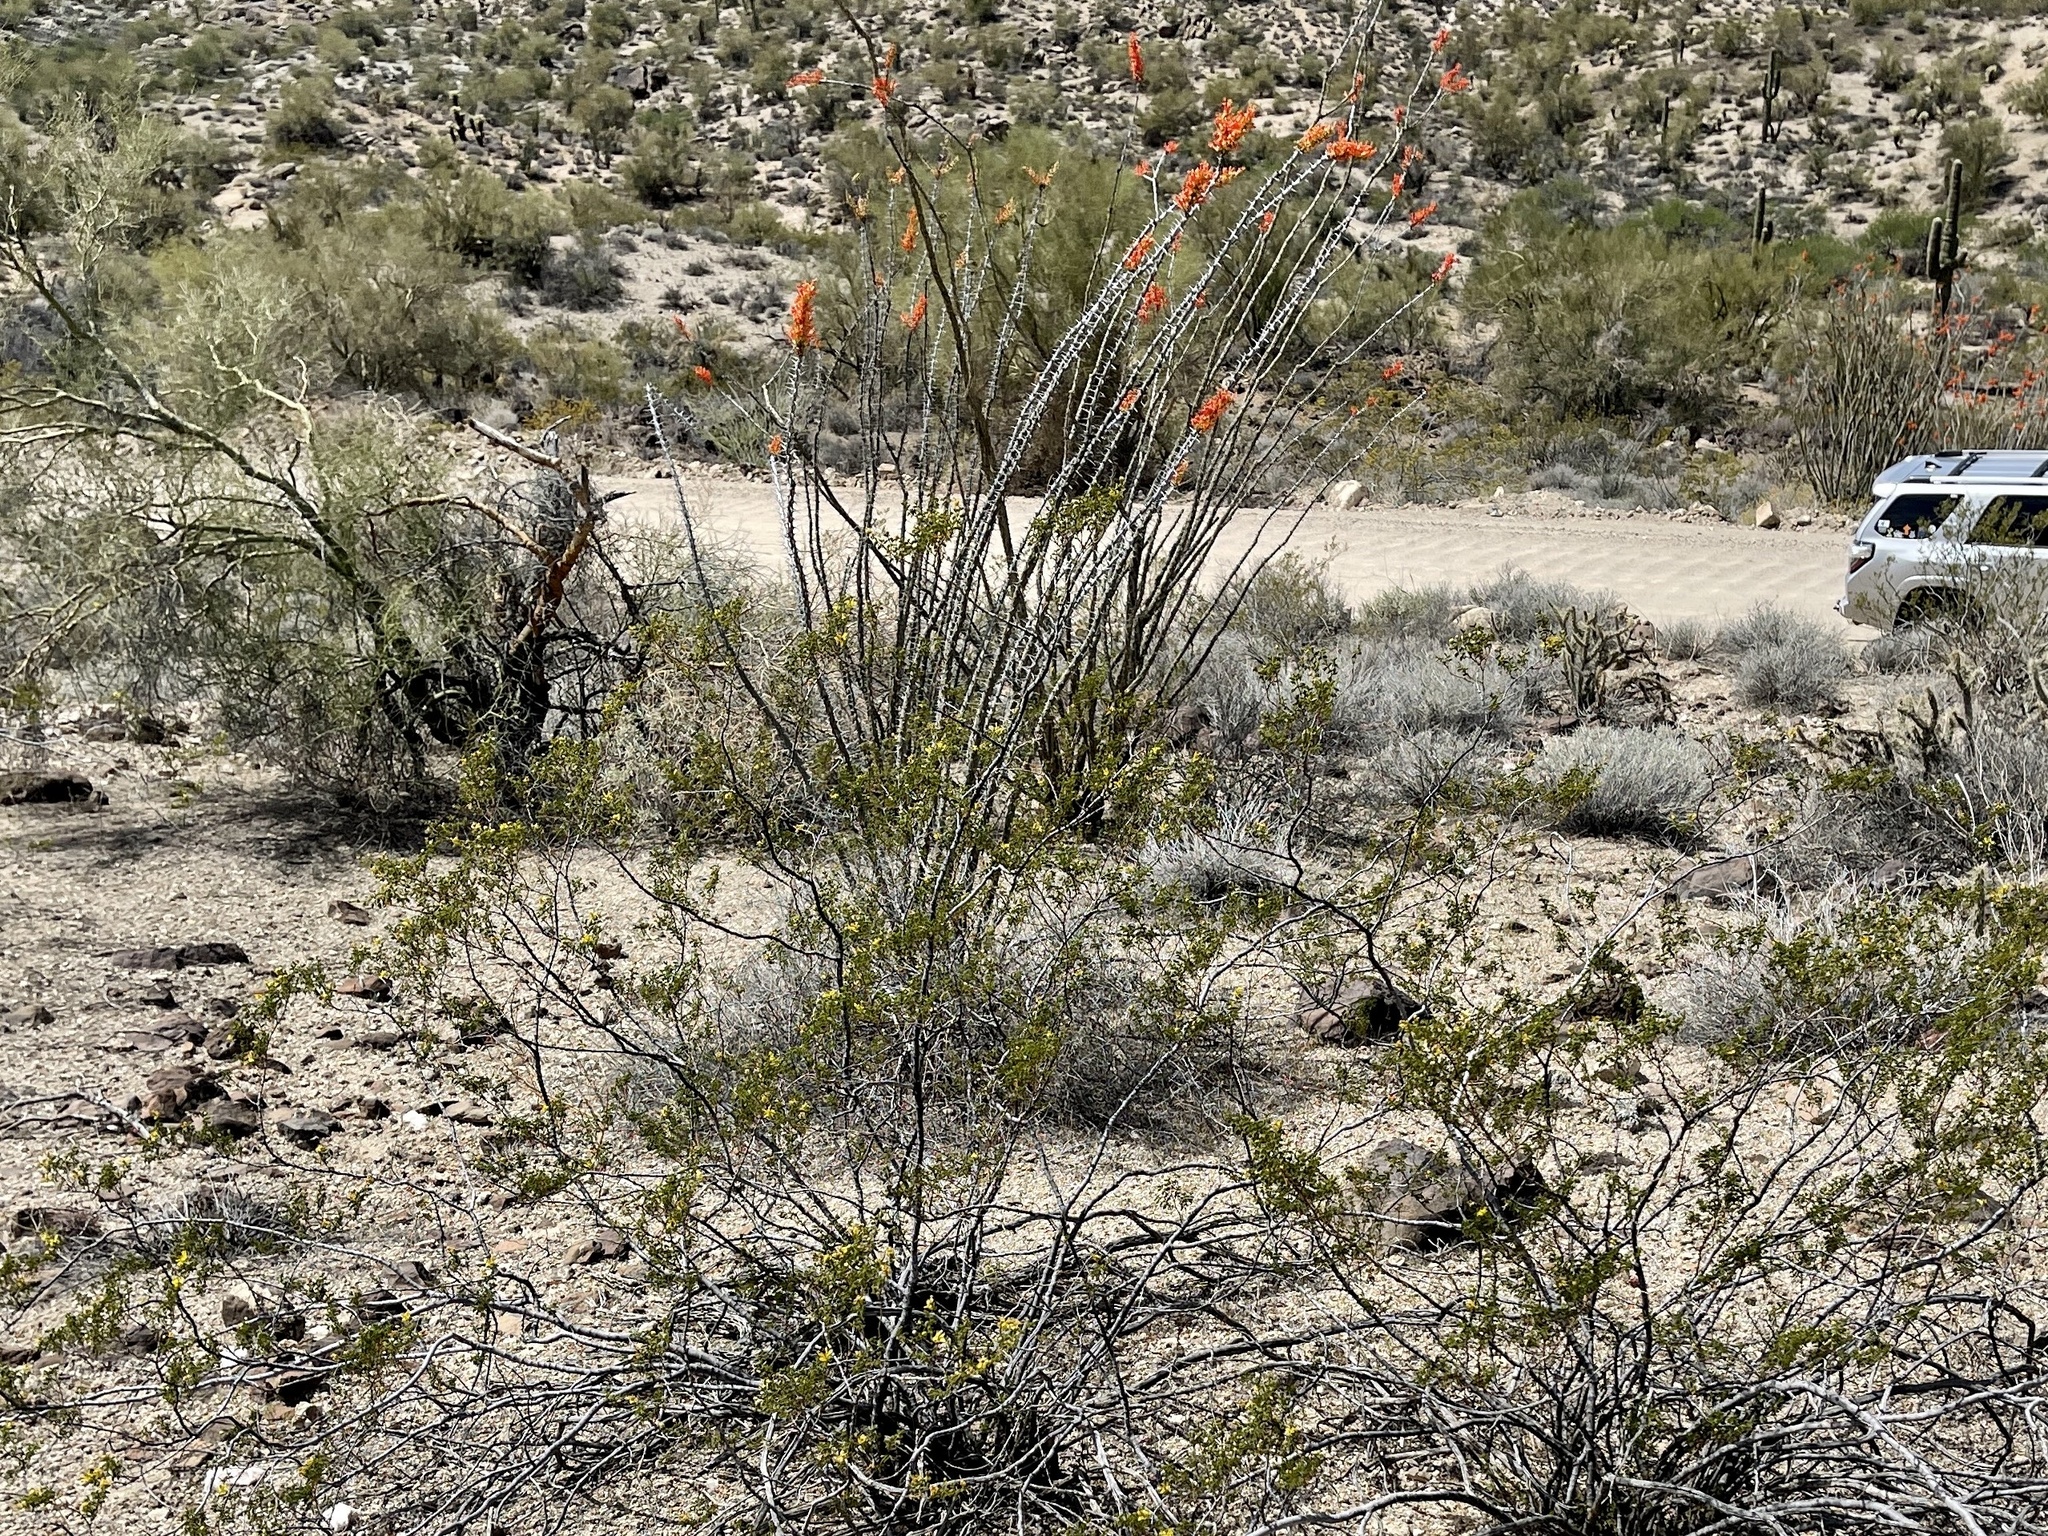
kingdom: Plantae
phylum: Tracheophyta
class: Magnoliopsida
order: Ericales
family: Fouquieriaceae
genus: Fouquieria
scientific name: Fouquieria splendens
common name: Vine-cactus
